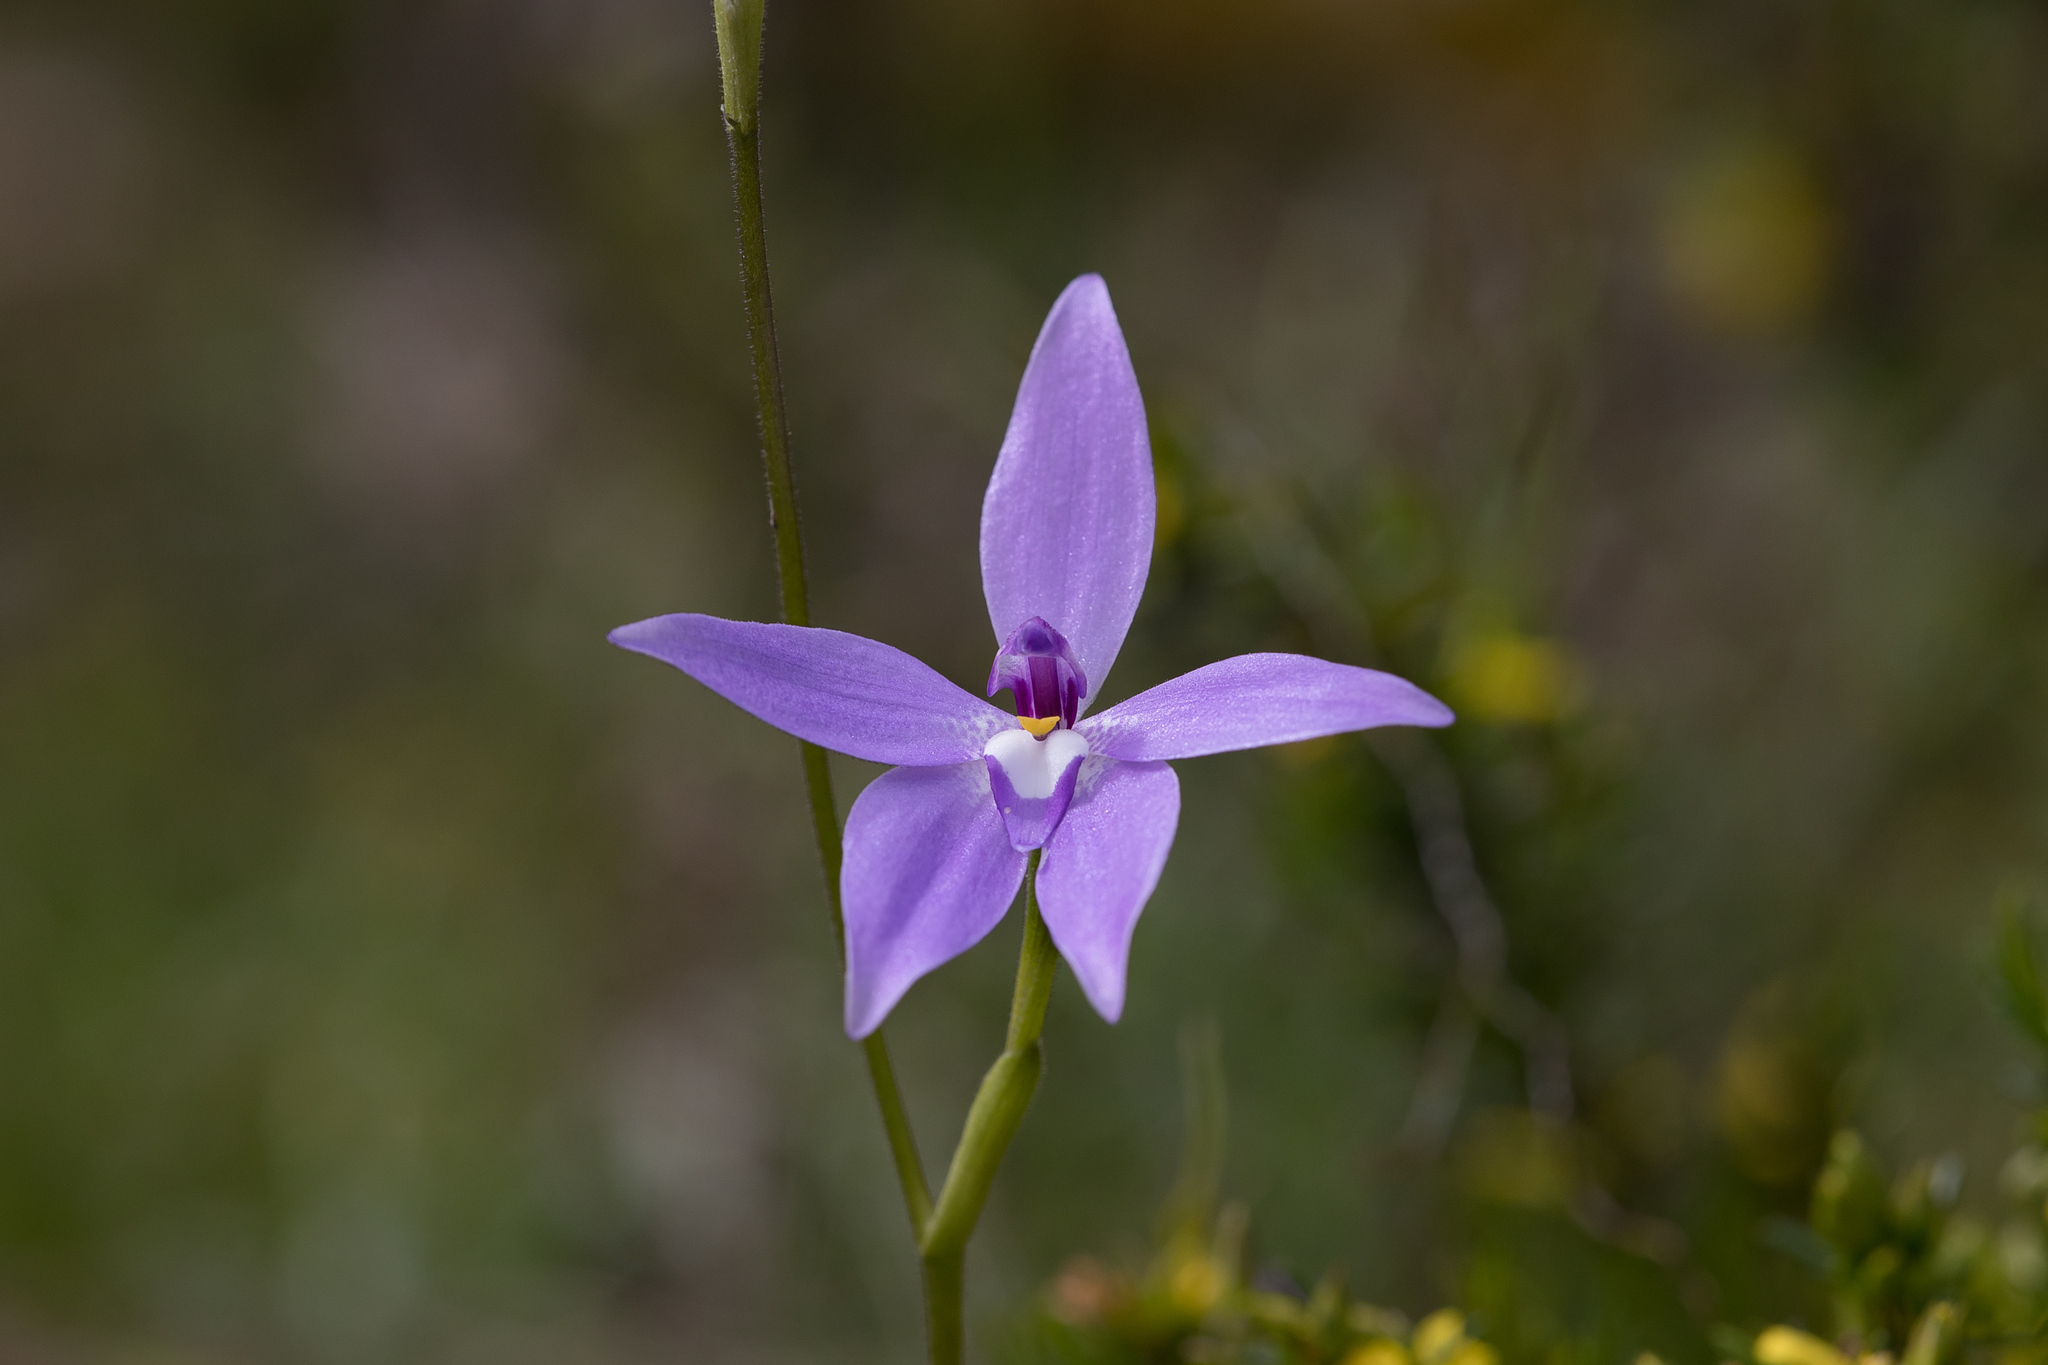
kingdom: Plantae
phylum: Tracheophyta
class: Liliopsida
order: Asparagales
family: Orchidaceae
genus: Caladenia
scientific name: Caladenia major
